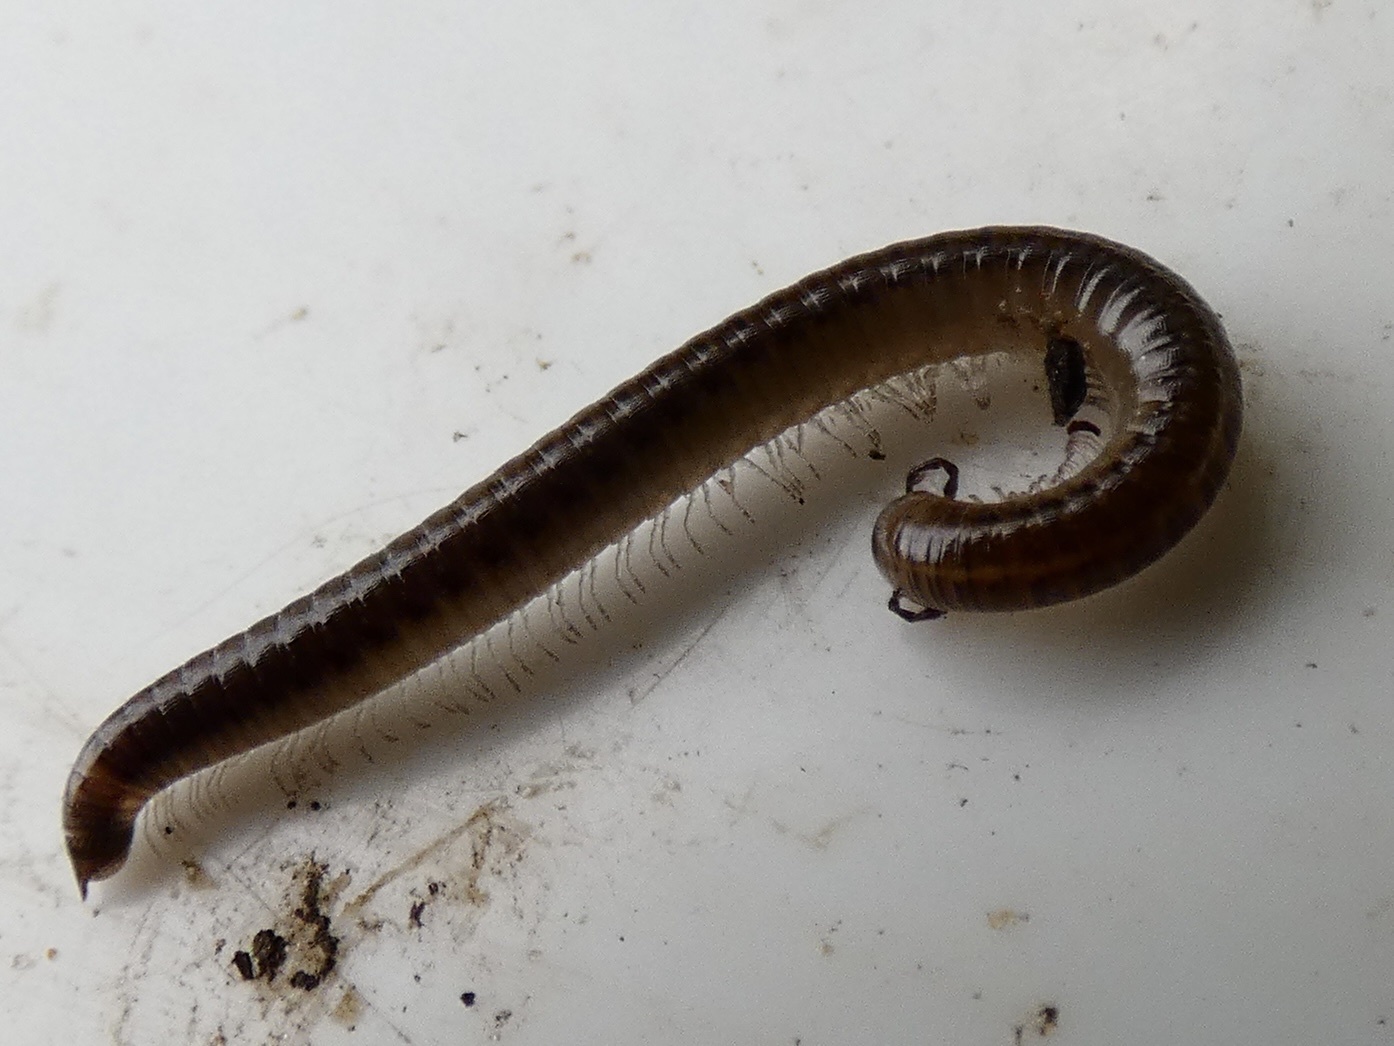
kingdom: Animalia
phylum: Arthropoda
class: Diplopoda
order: Julida
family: Julidae
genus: Leptoiulus
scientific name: Leptoiulus belgicus
